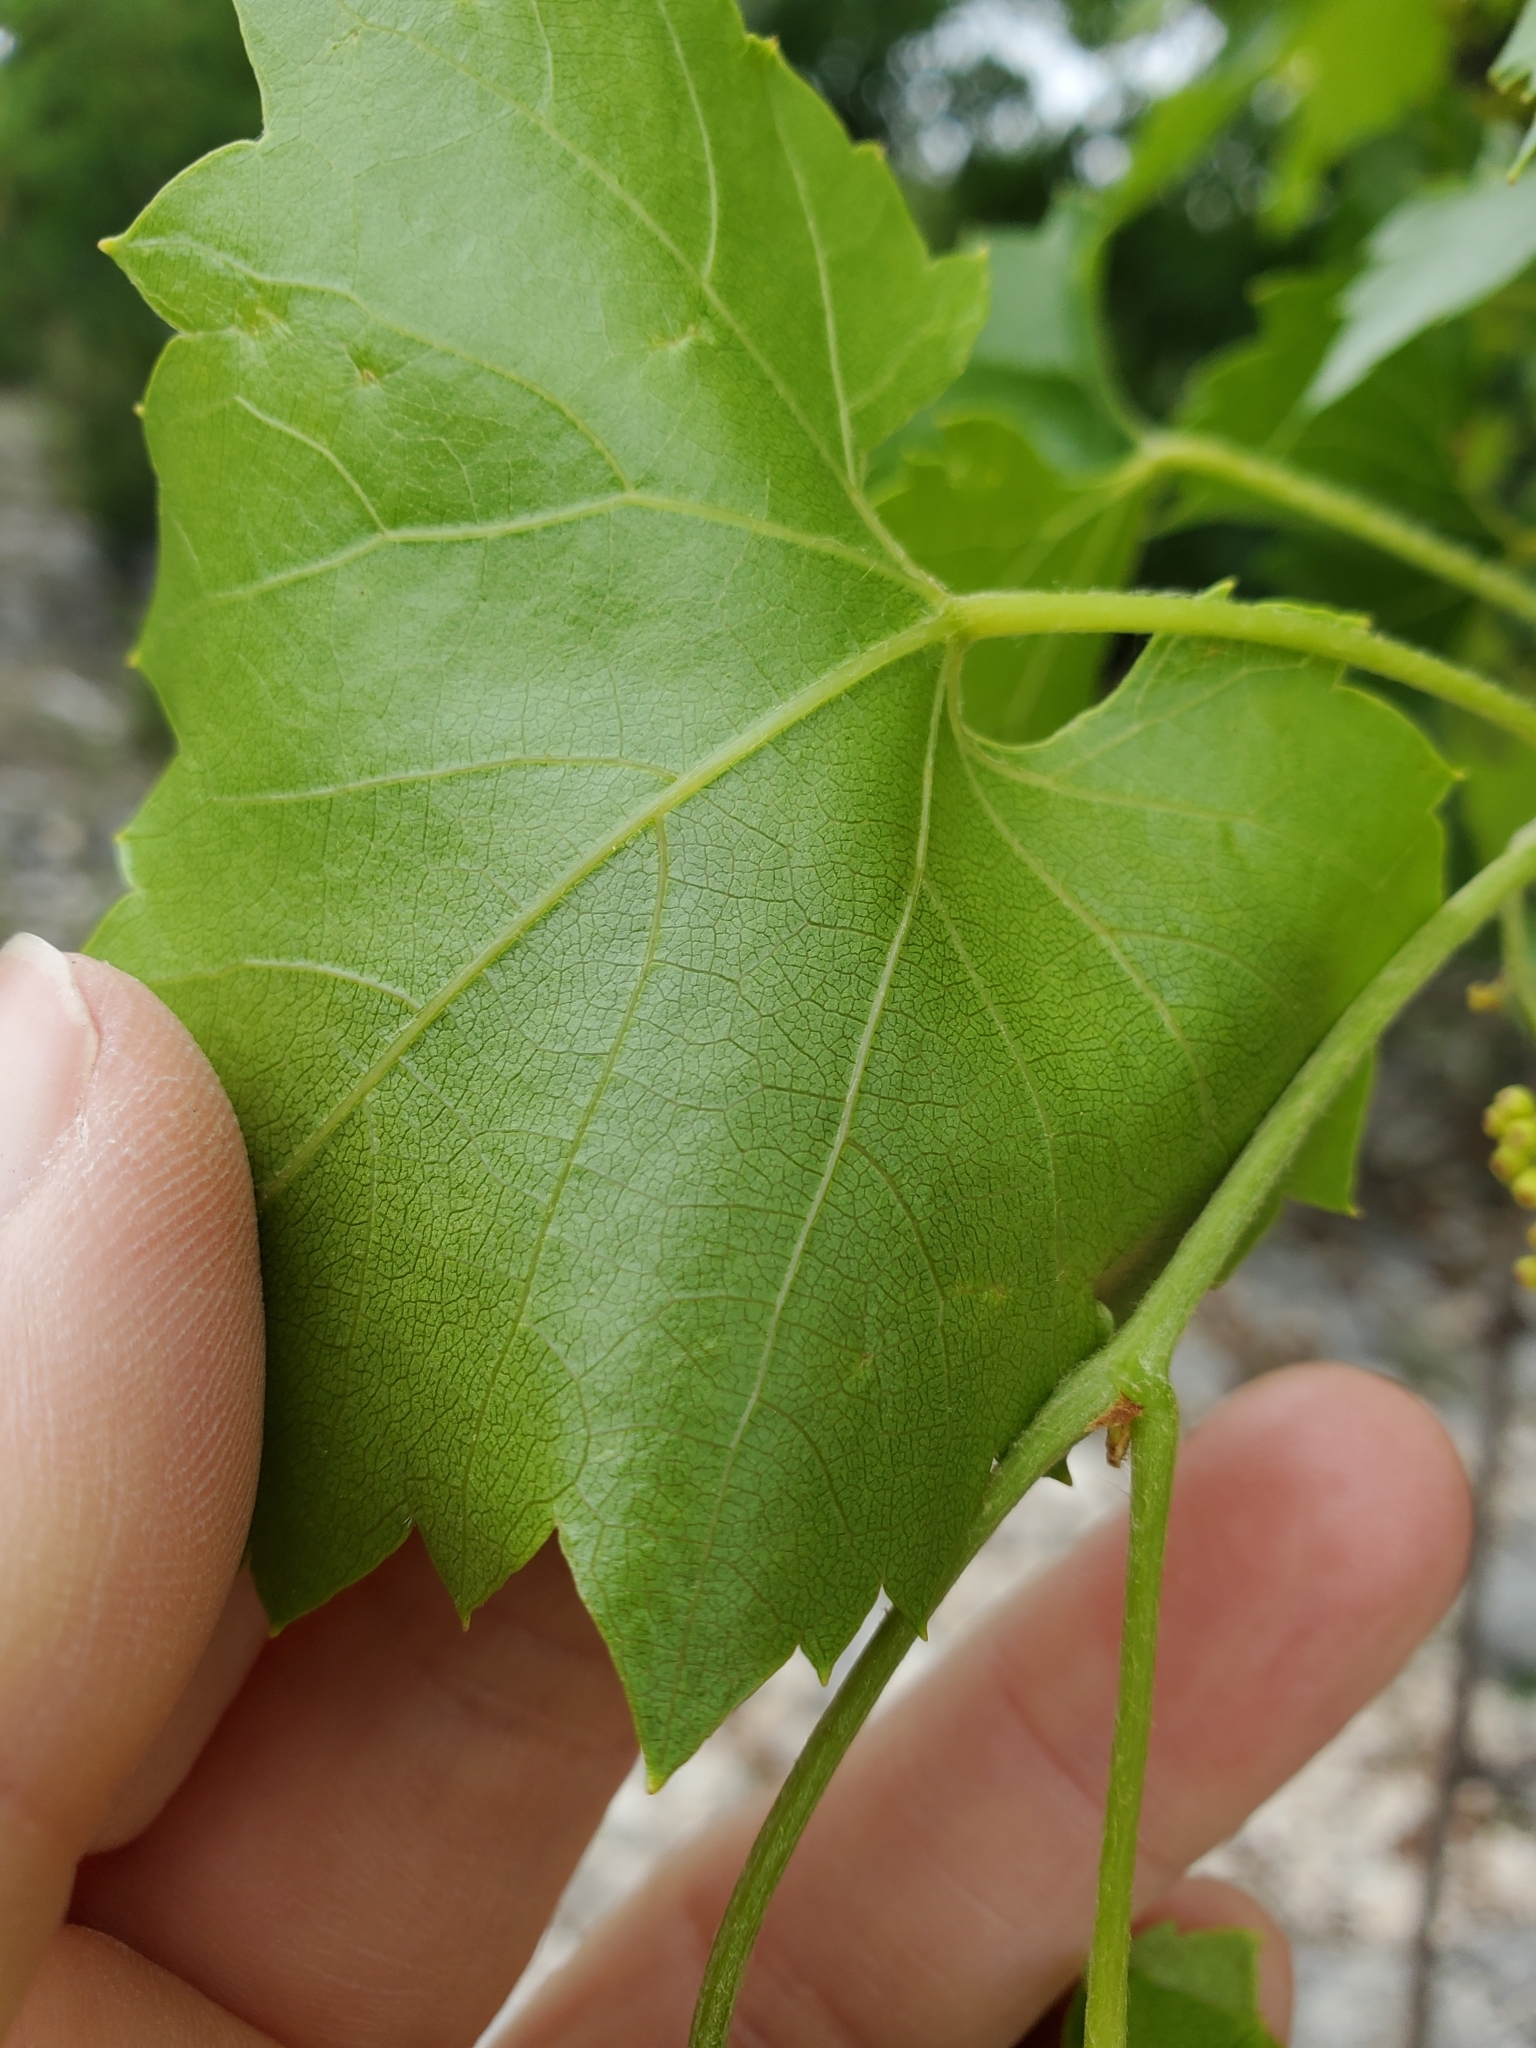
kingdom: Plantae
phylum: Tracheophyta
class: Magnoliopsida
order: Vitales
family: Vitaceae
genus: Vitis
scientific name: Vitis monticola
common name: Mountain grape
